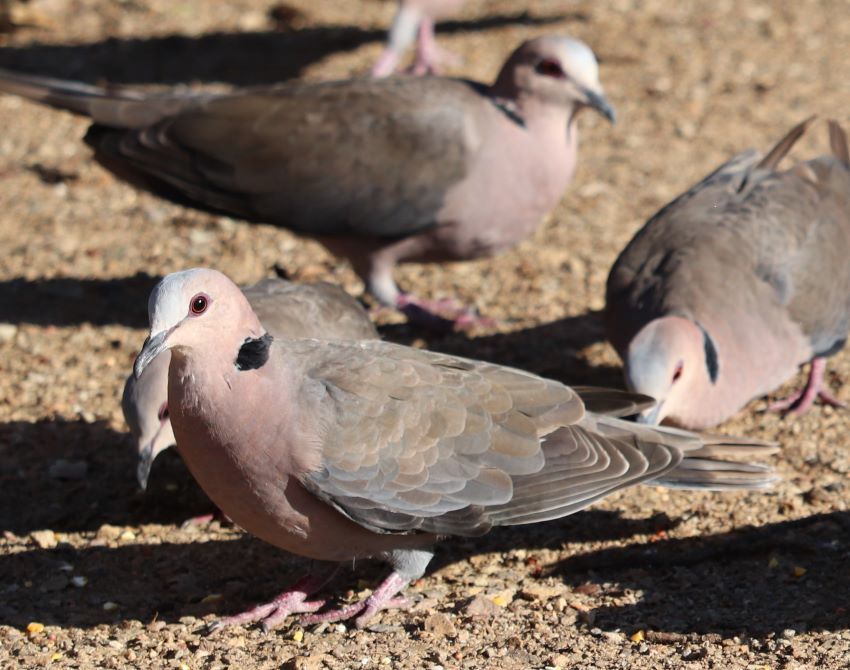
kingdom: Animalia
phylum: Chordata
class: Aves
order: Columbiformes
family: Columbidae
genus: Streptopelia
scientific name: Streptopelia semitorquata
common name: Red-eyed dove
